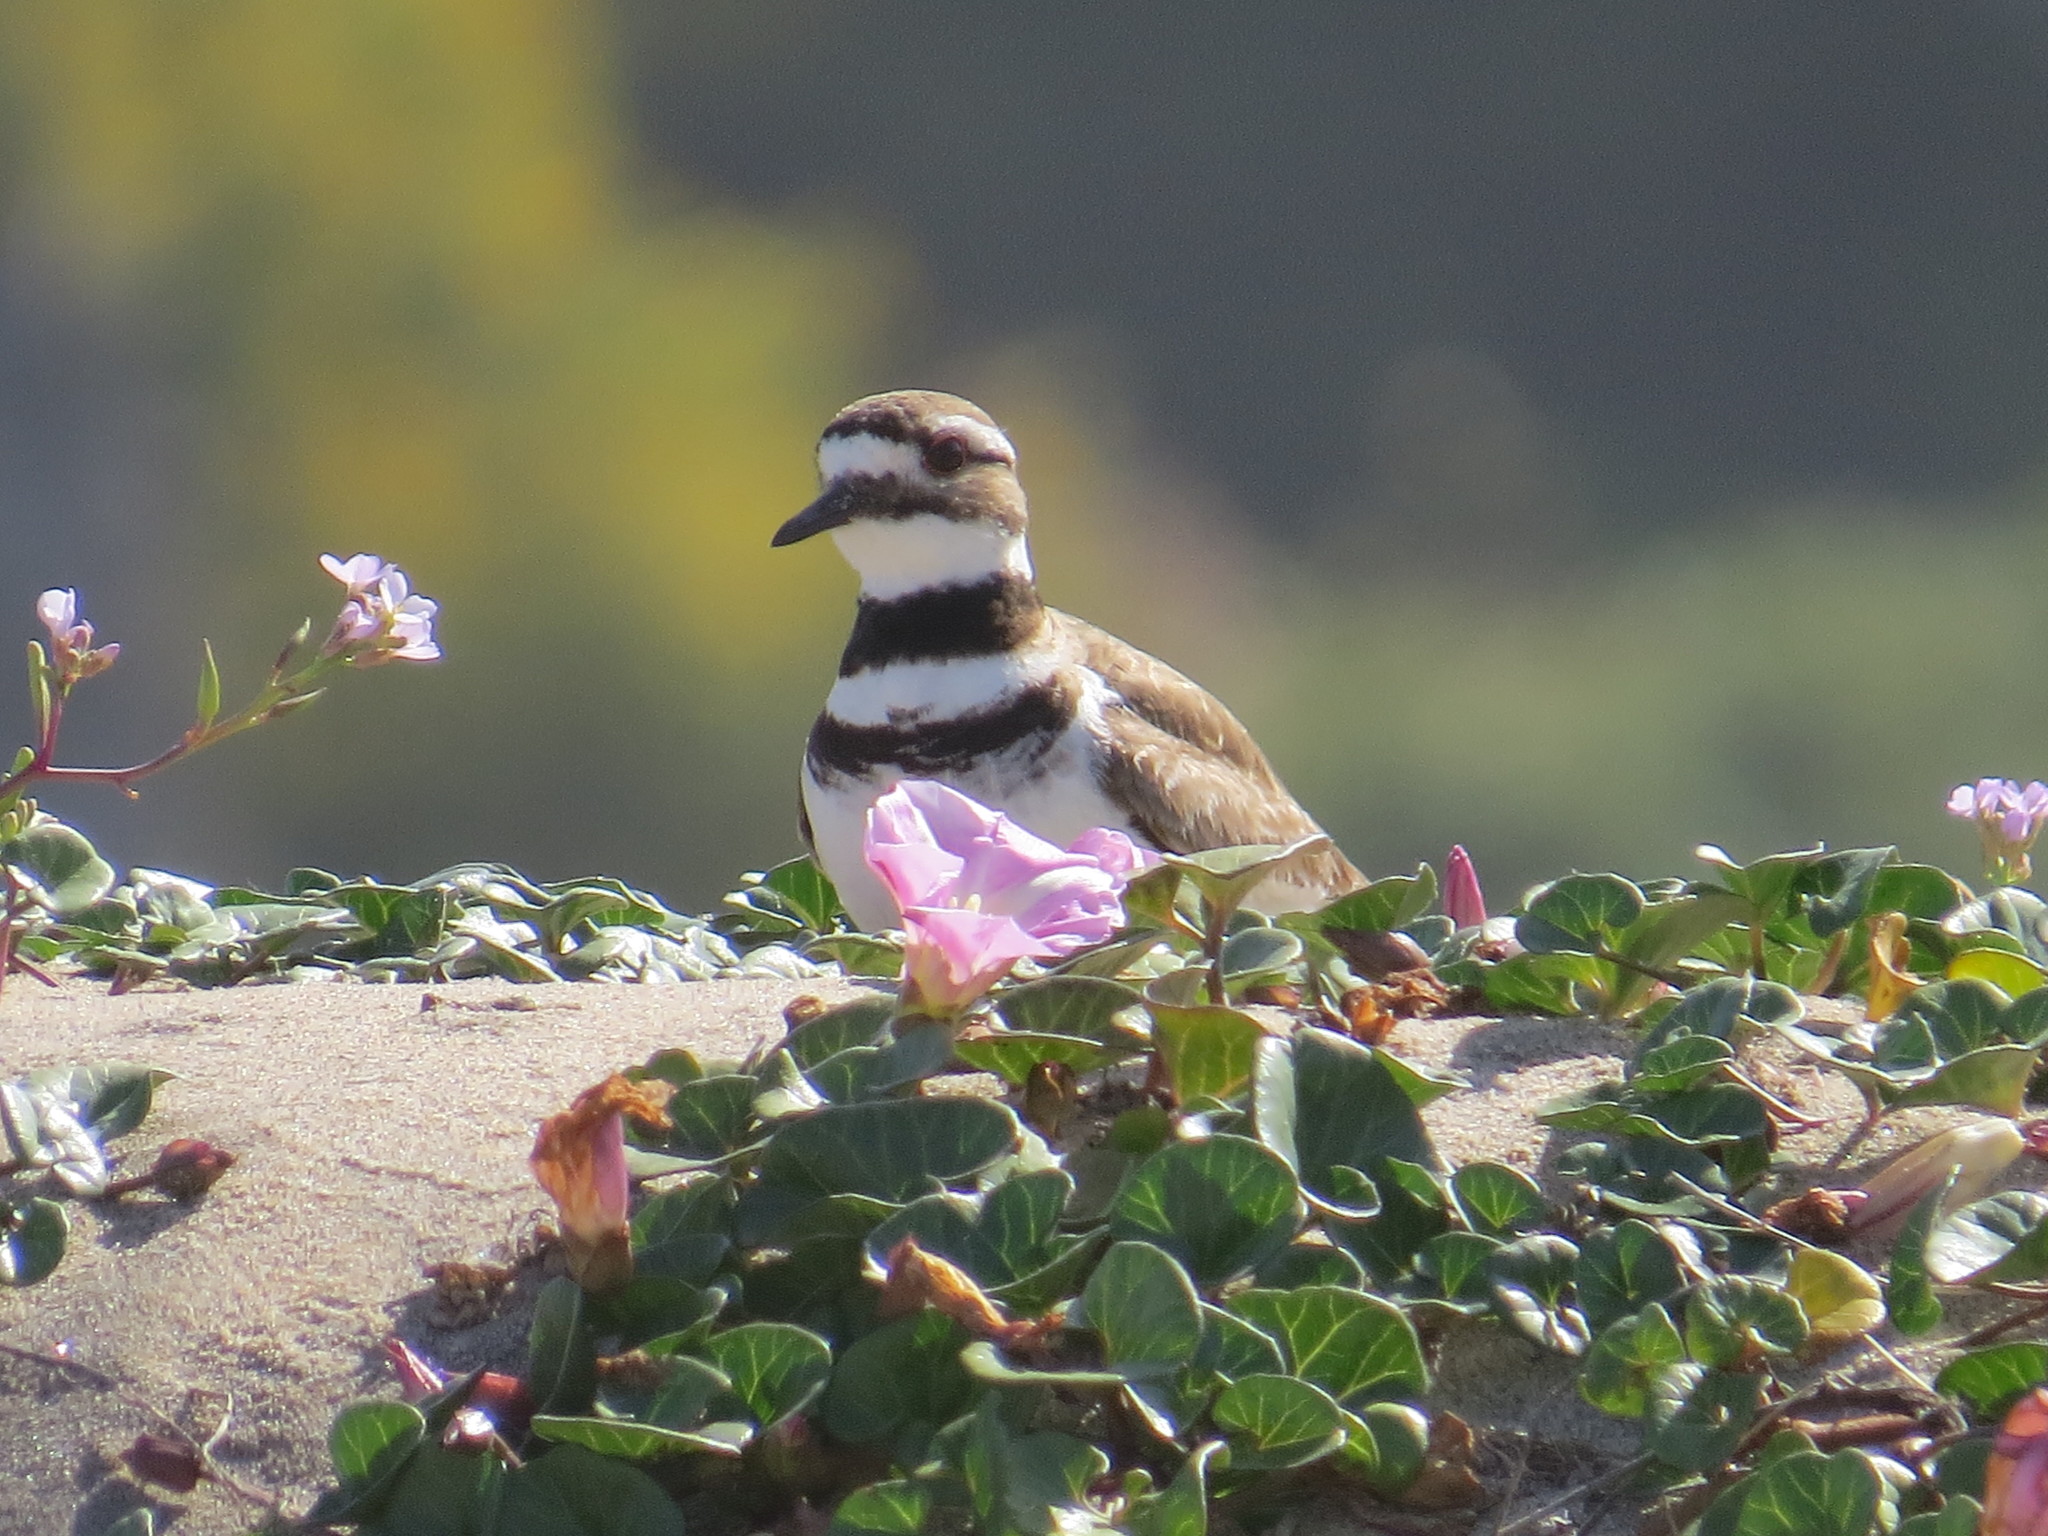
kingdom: Animalia
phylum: Chordata
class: Aves
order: Charadriiformes
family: Charadriidae
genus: Charadrius
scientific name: Charadrius vociferus
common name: Killdeer
